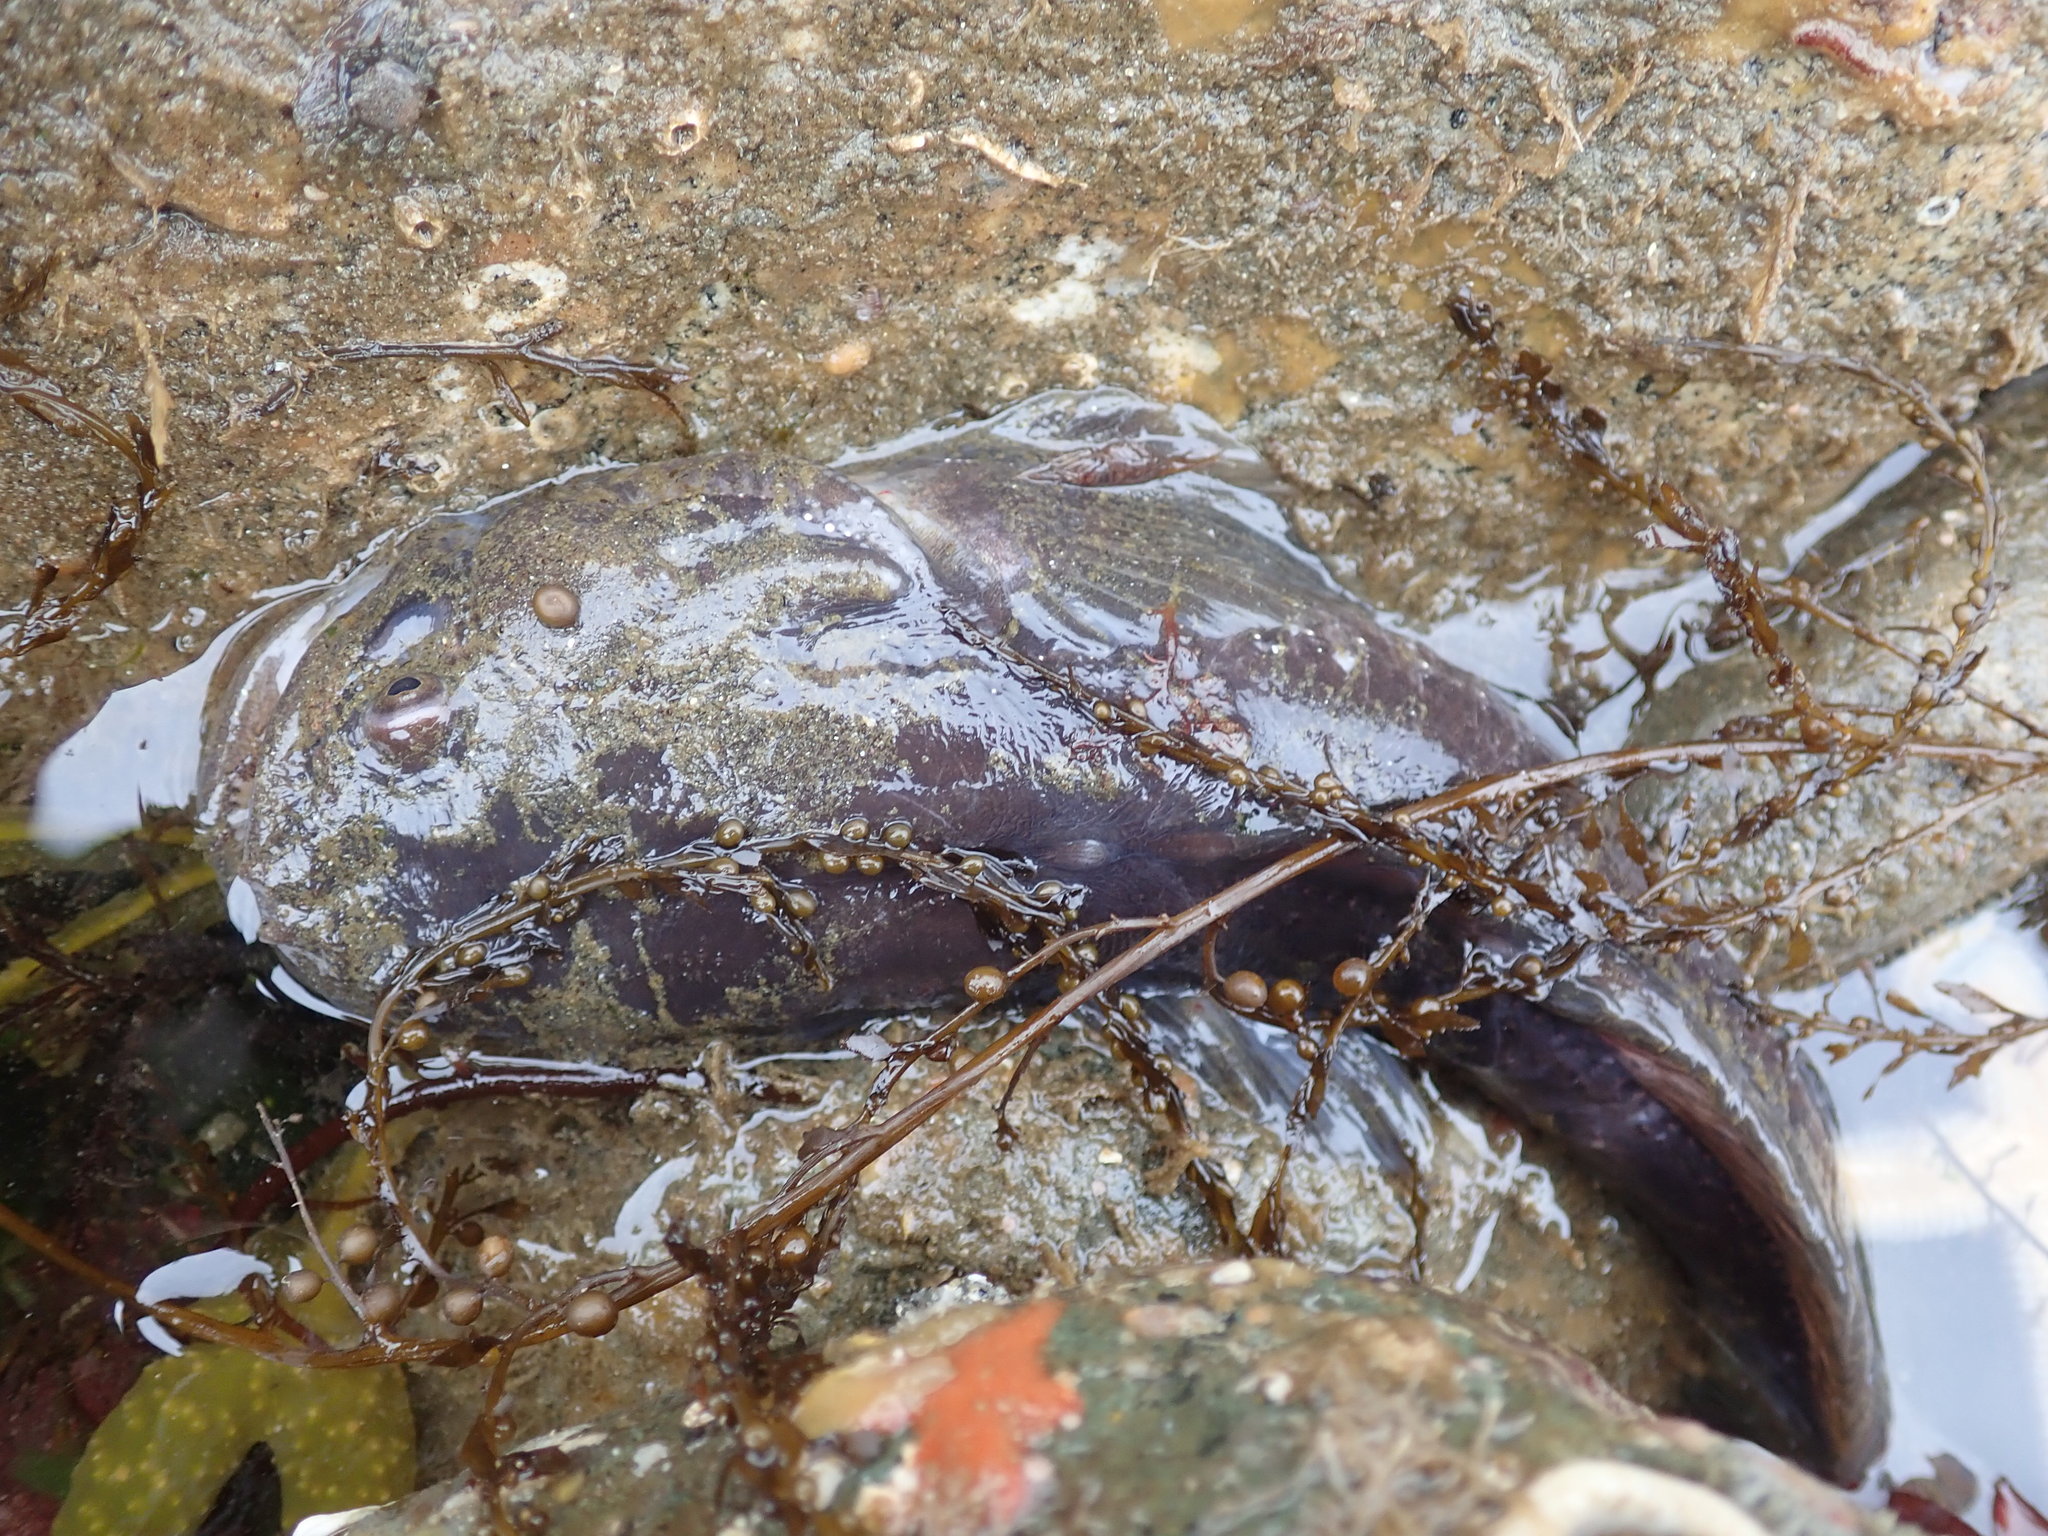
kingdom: Animalia
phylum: Chordata
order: Batrachoidiformes
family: Batrachoididae
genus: Porichthys
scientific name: Porichthys notatus
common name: Plainfin midshipman
